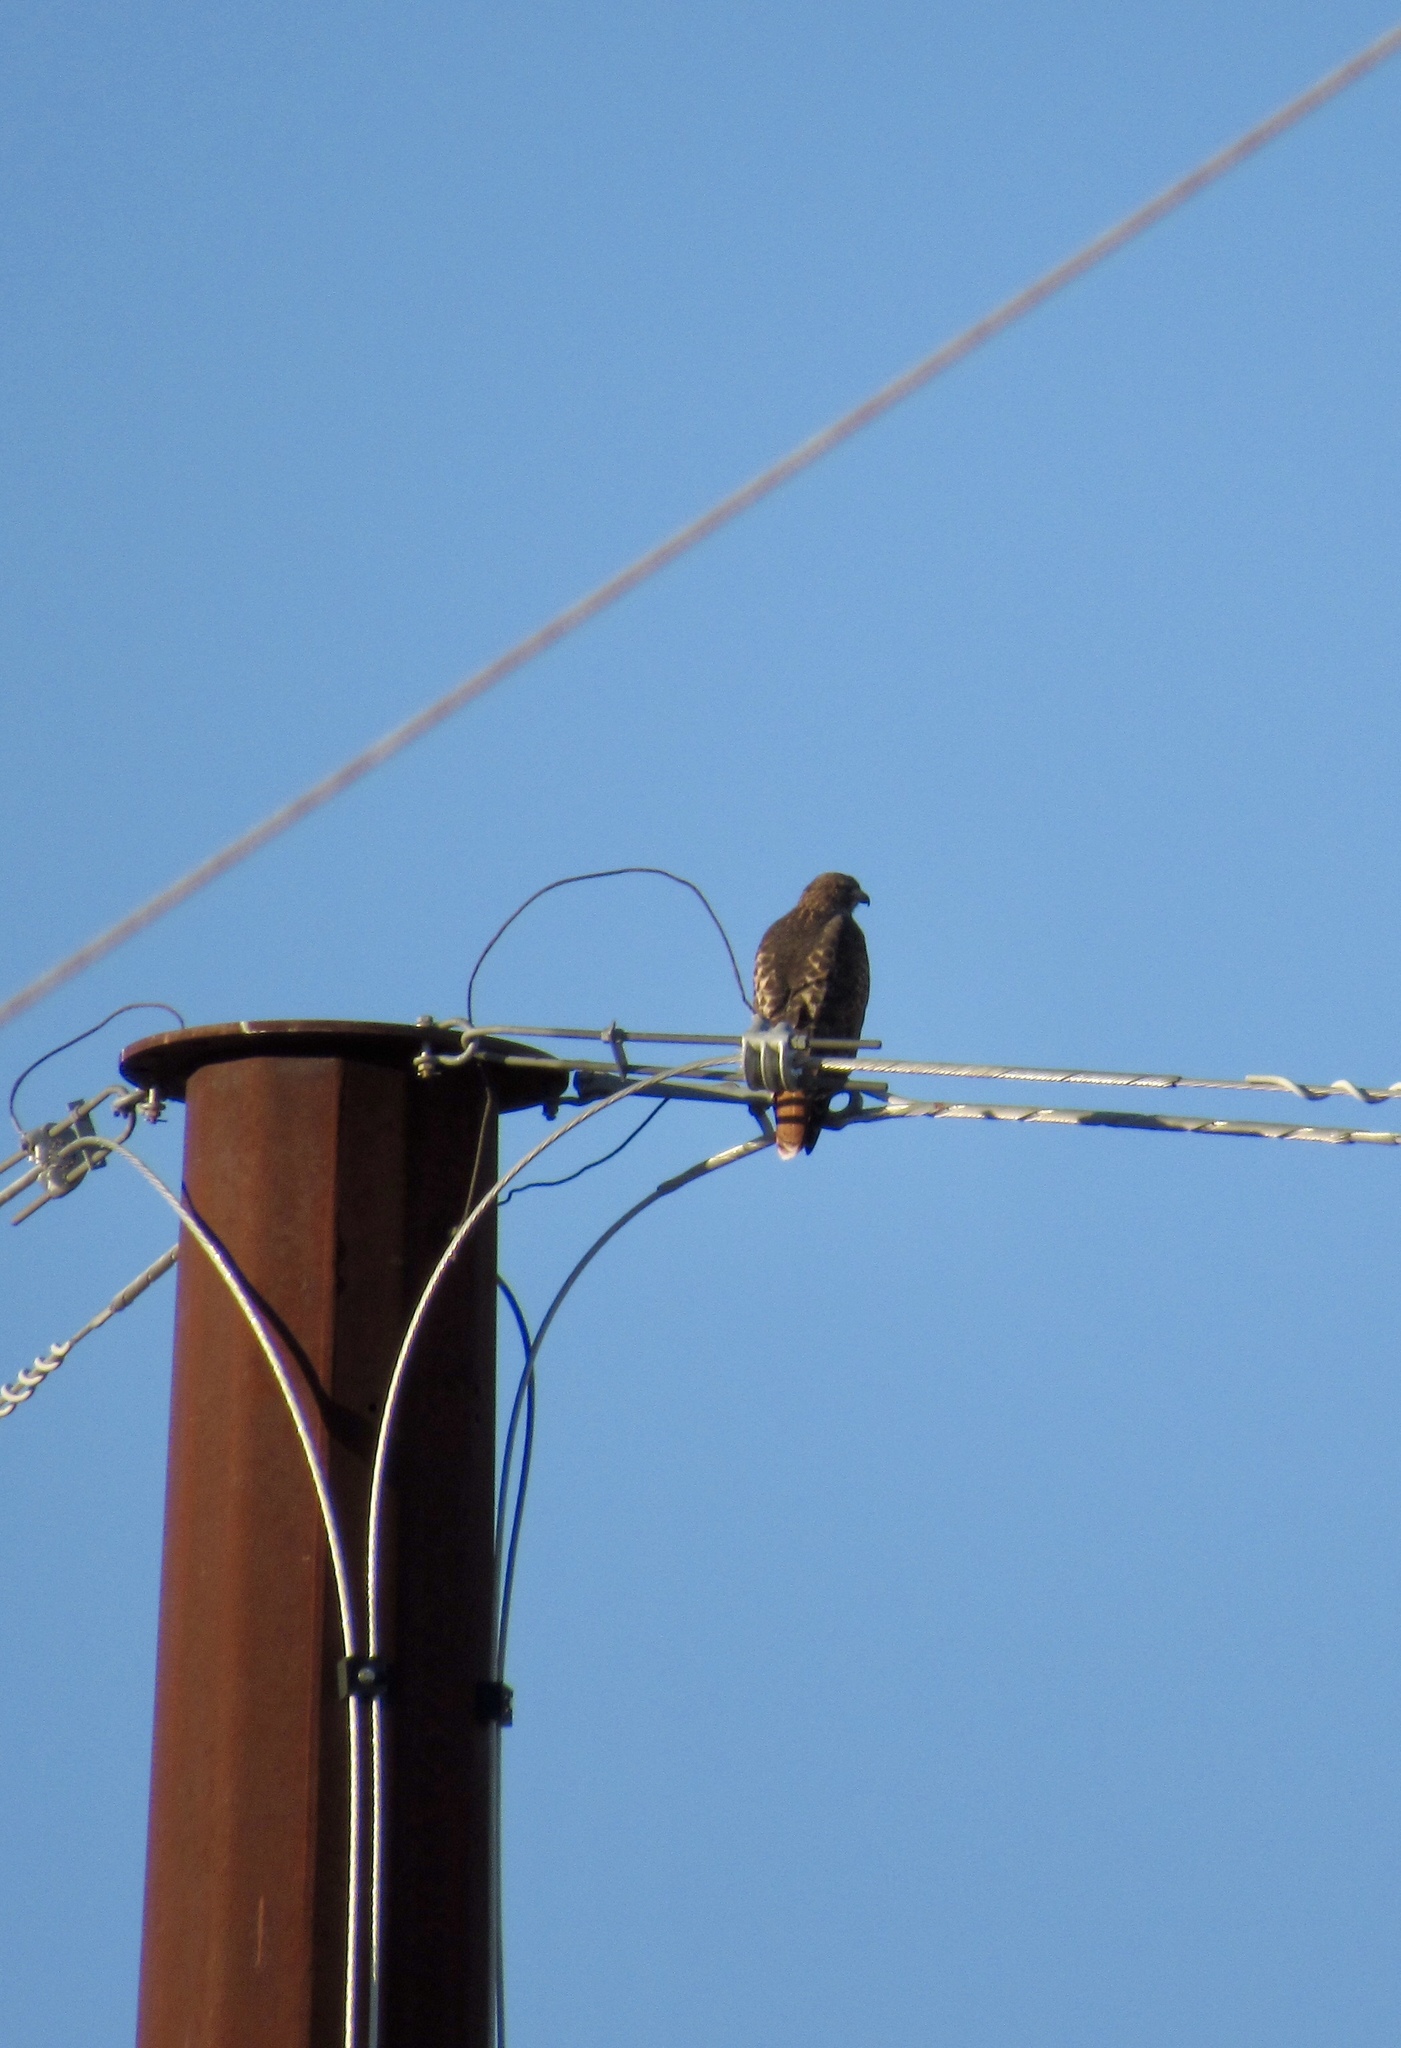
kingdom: Animalia
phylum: Chordata
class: Aves
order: Accipitriformes
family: Accipitridae
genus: Buteo
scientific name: Buteo jamaicensis
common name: Red-tailed hawk
